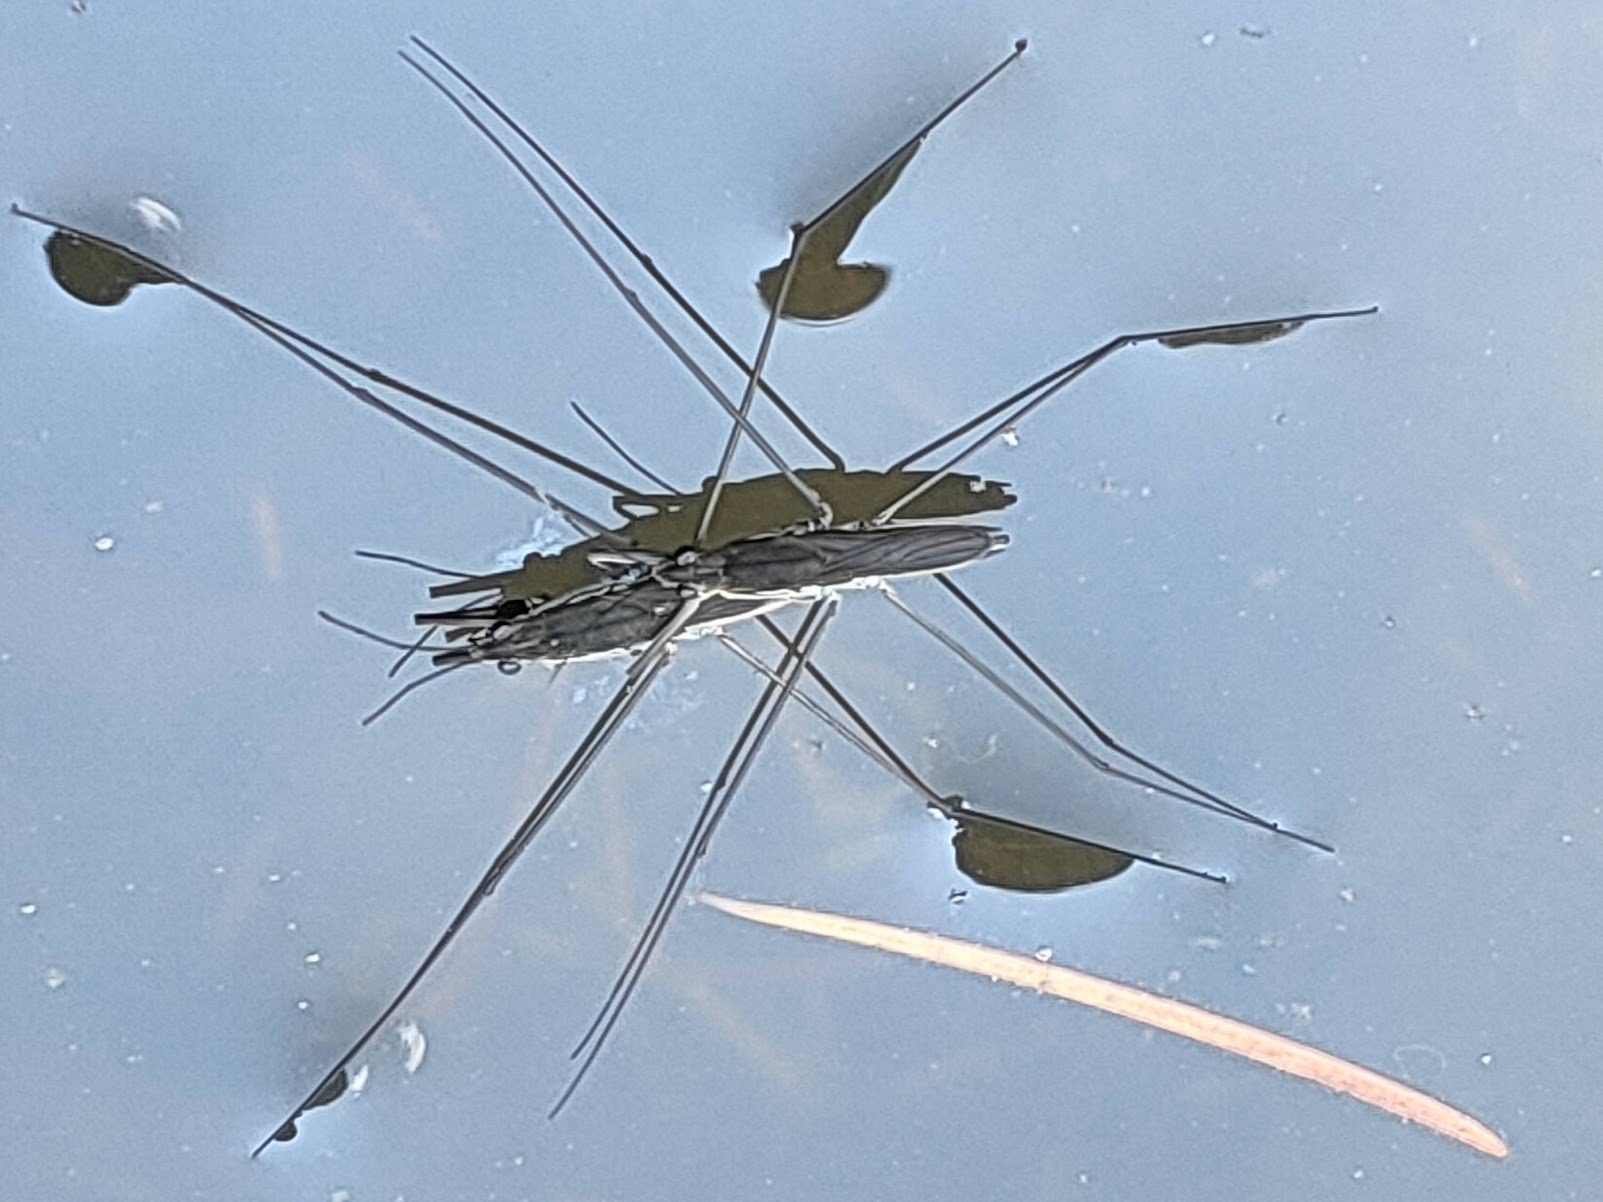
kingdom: Animalia
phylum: Arthropoda
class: Insecta
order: Hemiptera
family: Gerridae
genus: Aquarius
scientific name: Aquarius paludum
